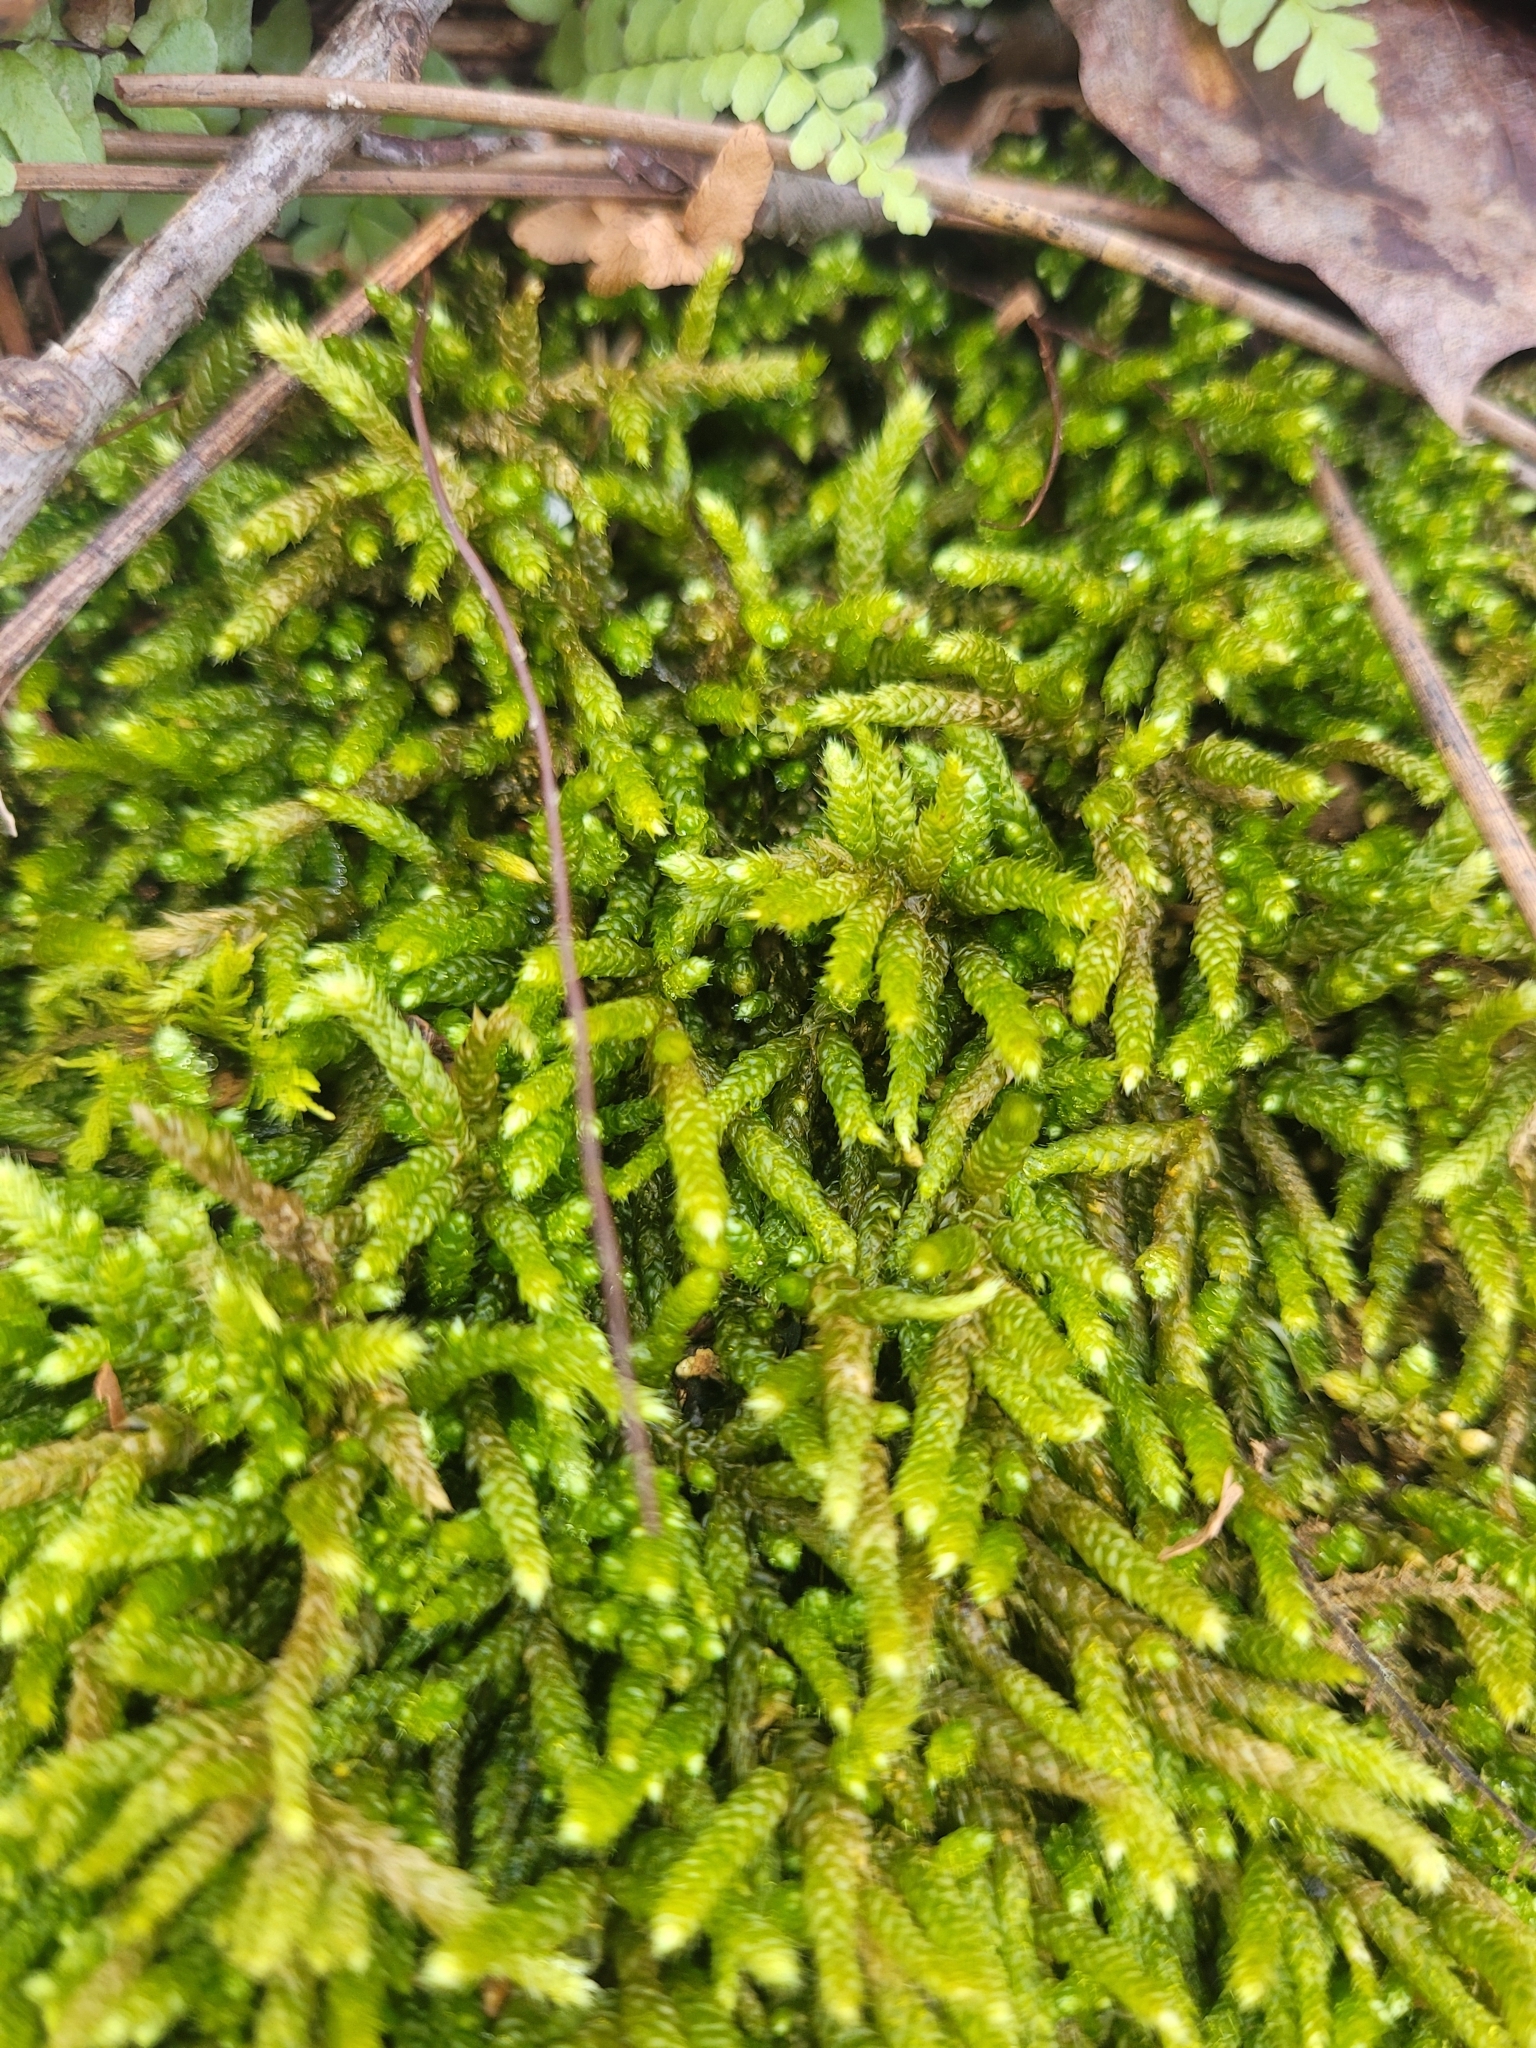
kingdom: Plantae
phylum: Bryophyta
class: Bryopsida
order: Hypnales
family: Brachytheciaceae
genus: Bryoandersonia
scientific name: Bryoandersonia illecebra
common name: Spoon-leaved moss
